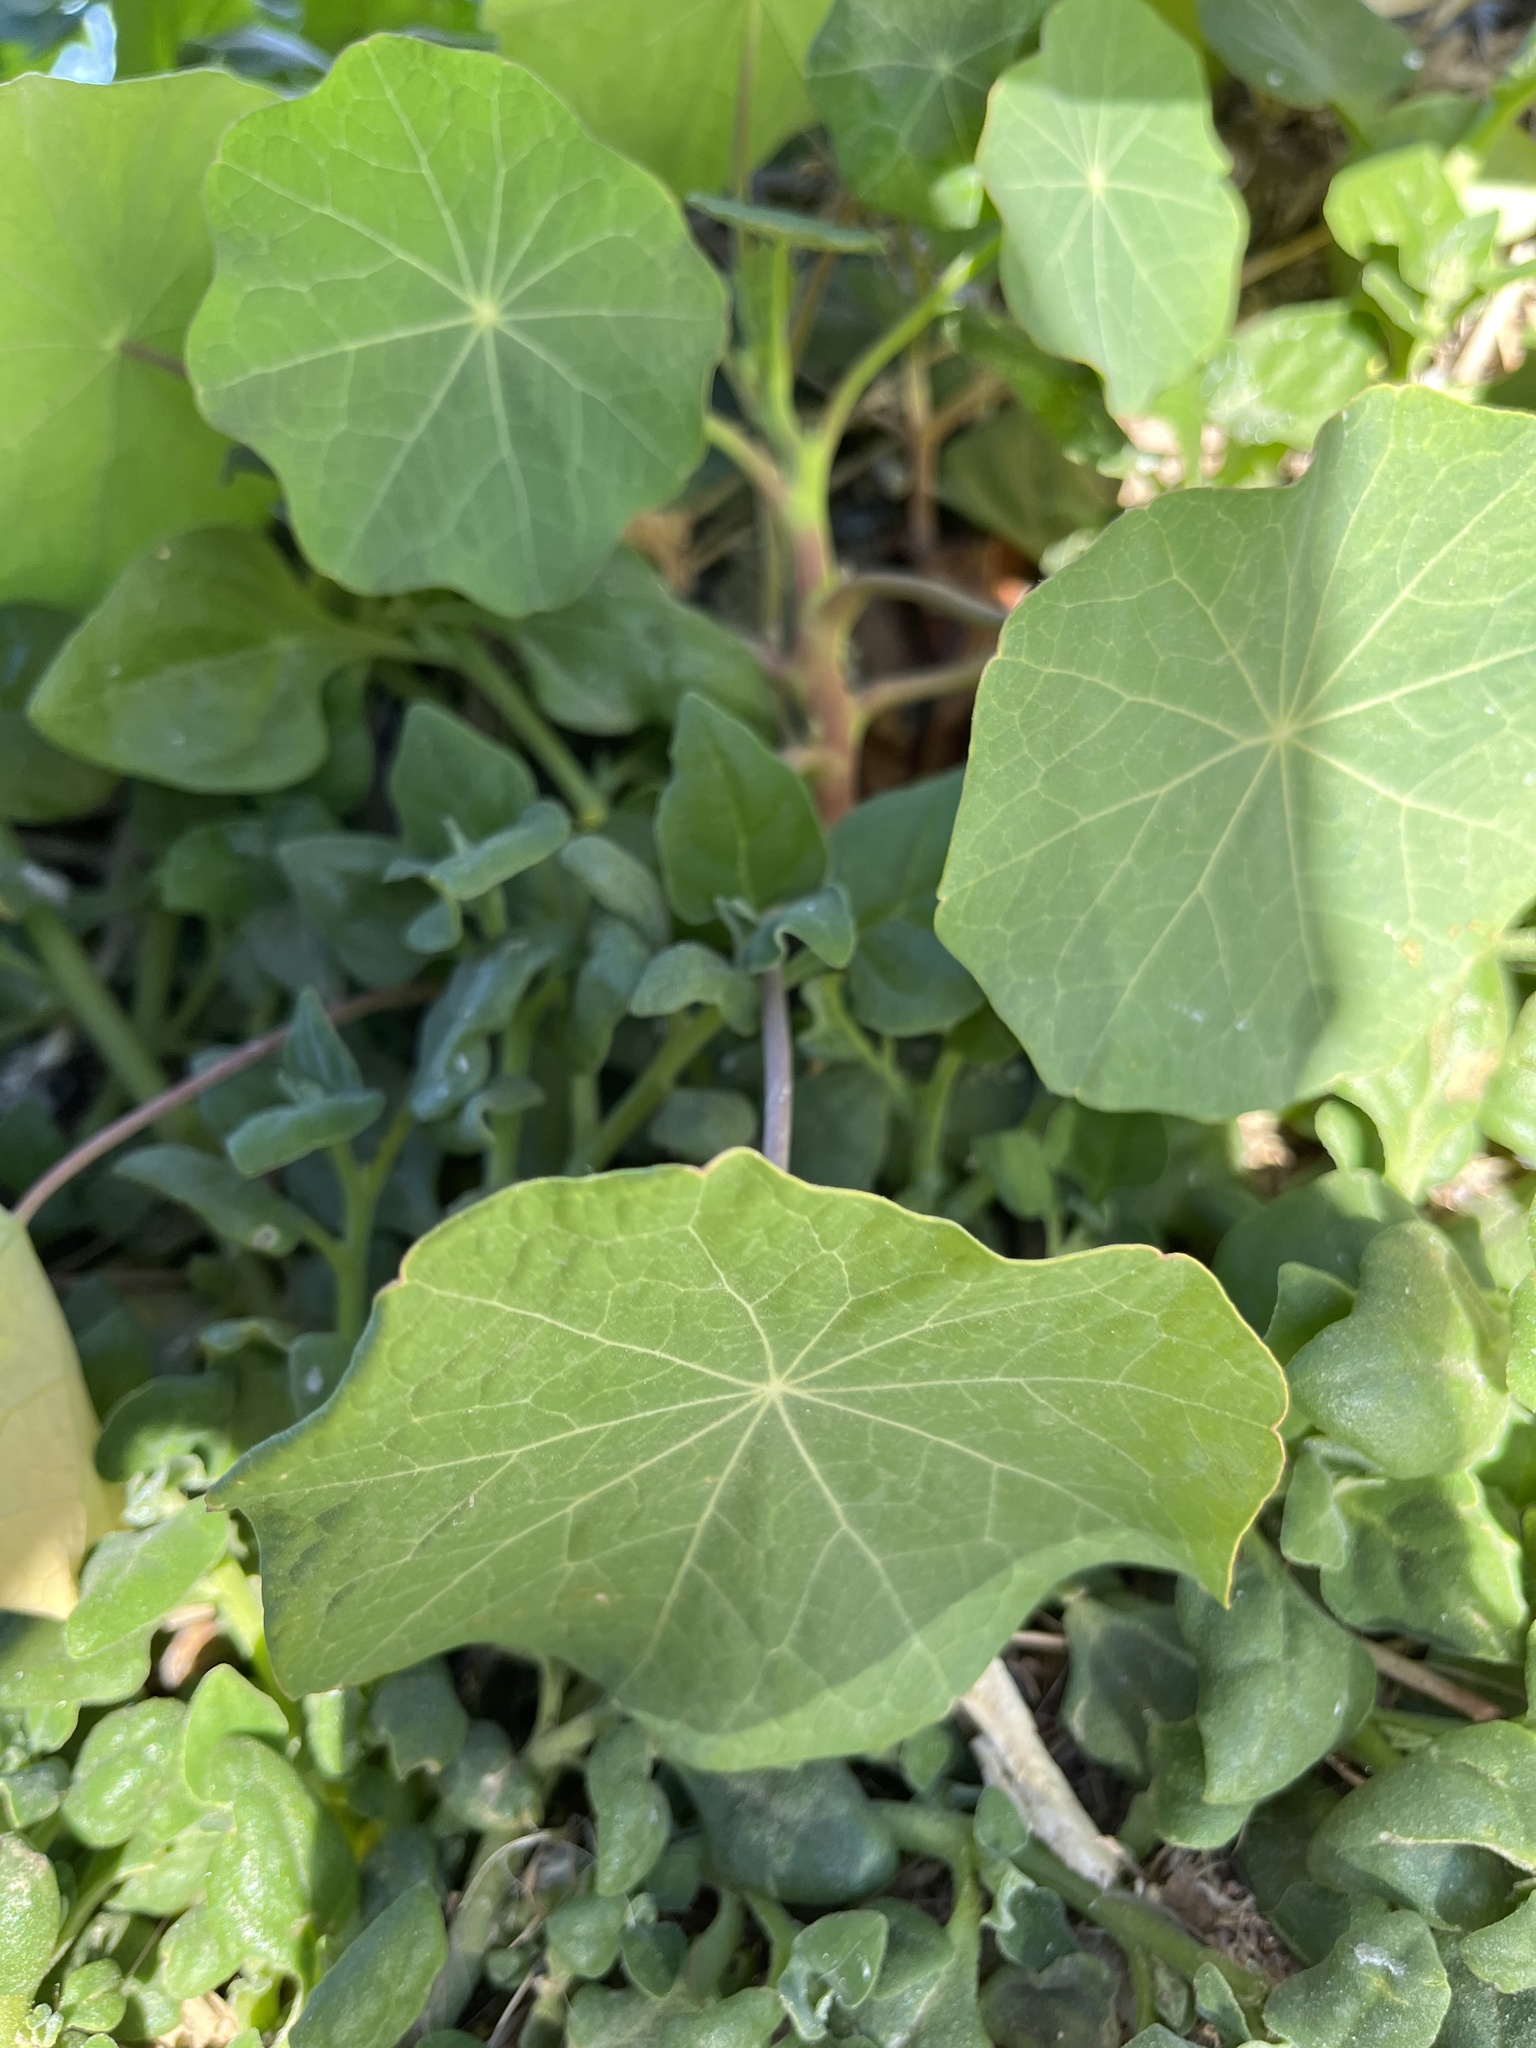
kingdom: Plantae
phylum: Tracheophyta
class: Magnoliopsida
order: Brassicales
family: Tropaeolaceae
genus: Tropaeolum
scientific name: Tropaeolum majus
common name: Nasturtium
